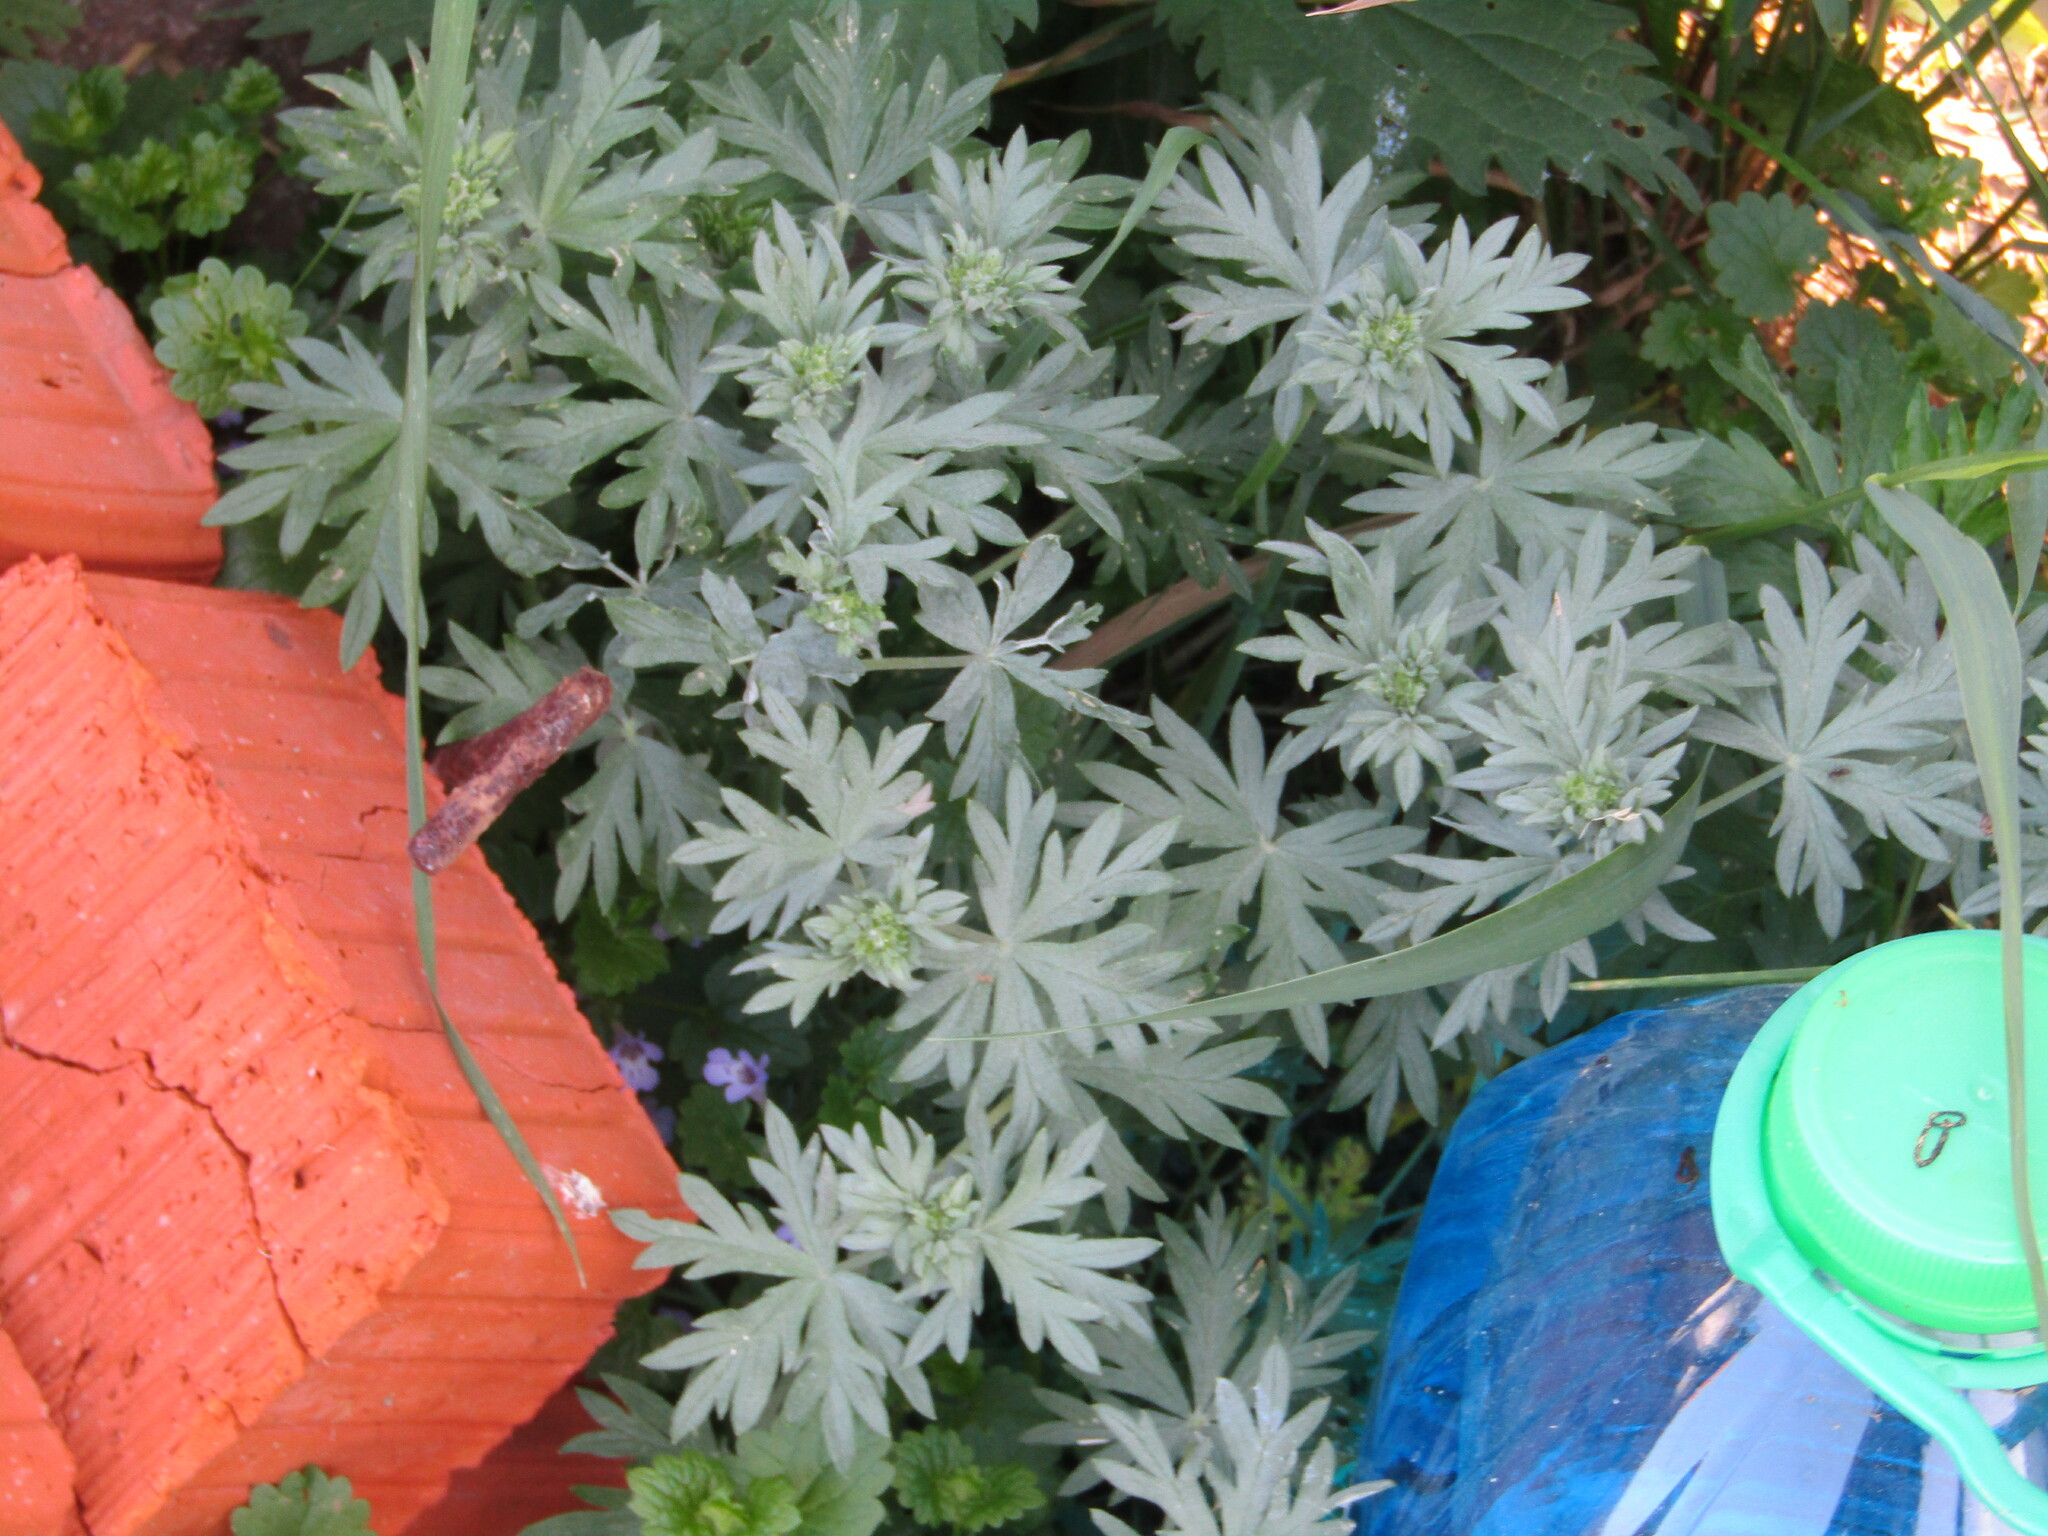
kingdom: Plantae
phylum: Tracheophyta
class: Magnoliopsida
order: Rosales
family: Rosaceae
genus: Potentilla
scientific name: Potentilla argentea
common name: Hoary cinquefoil
